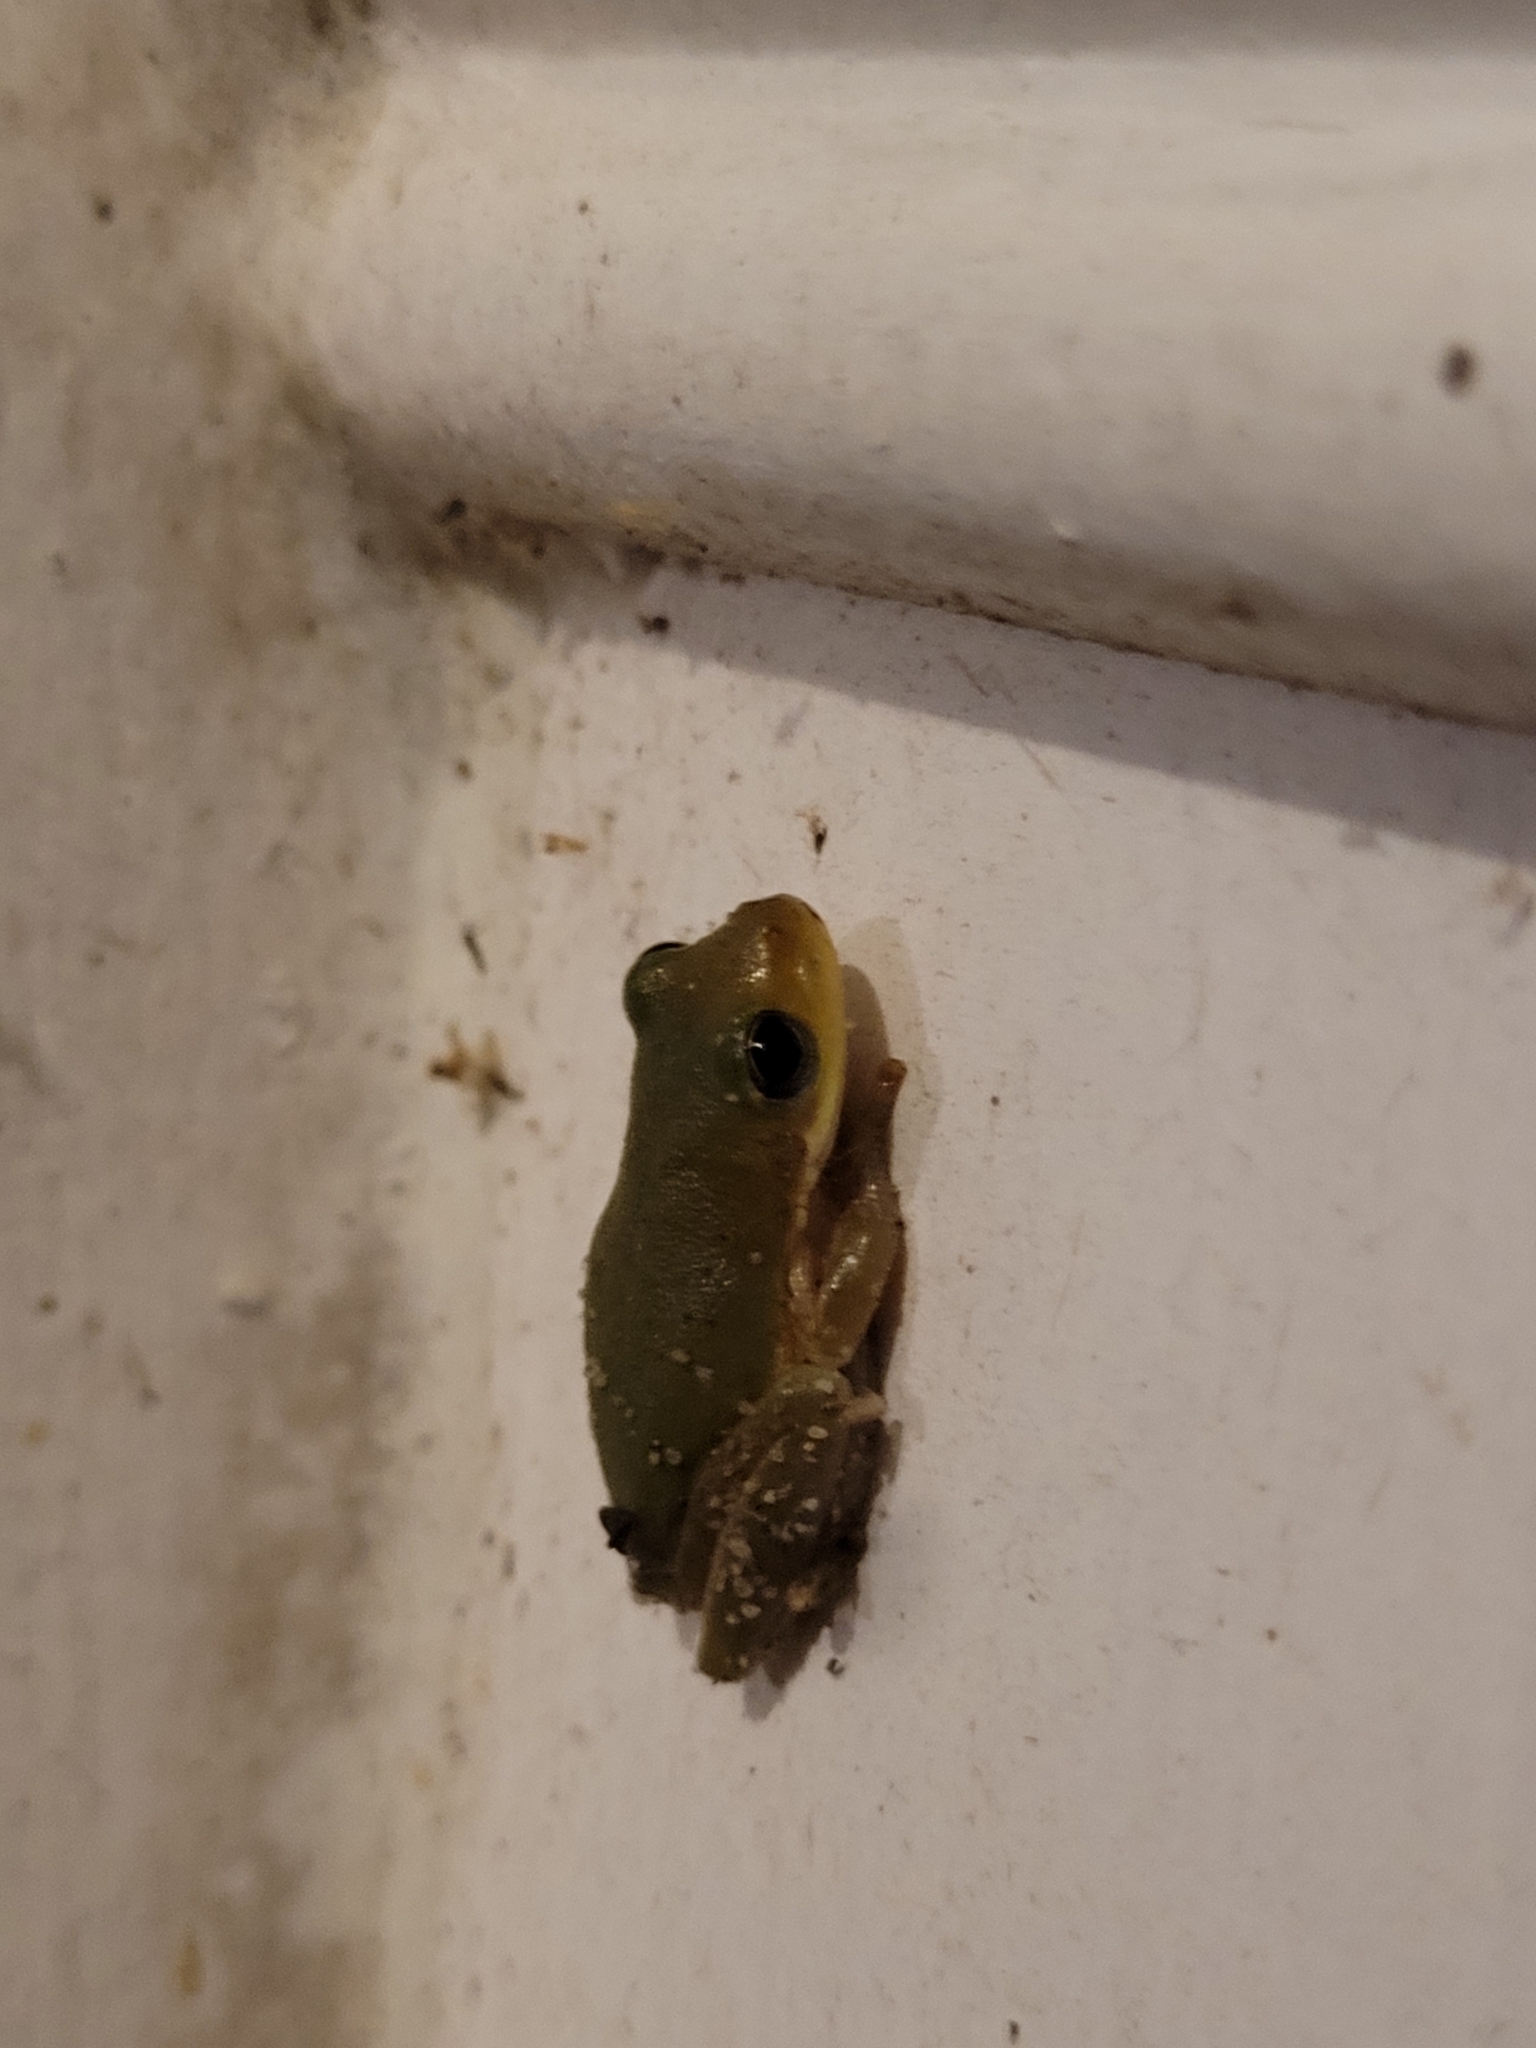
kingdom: Animalia
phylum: Chordata
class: Amphibia
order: Anura
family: Hylidae
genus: Dryophytes
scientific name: Dryophytes squirellus
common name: Squirrel treefrog
